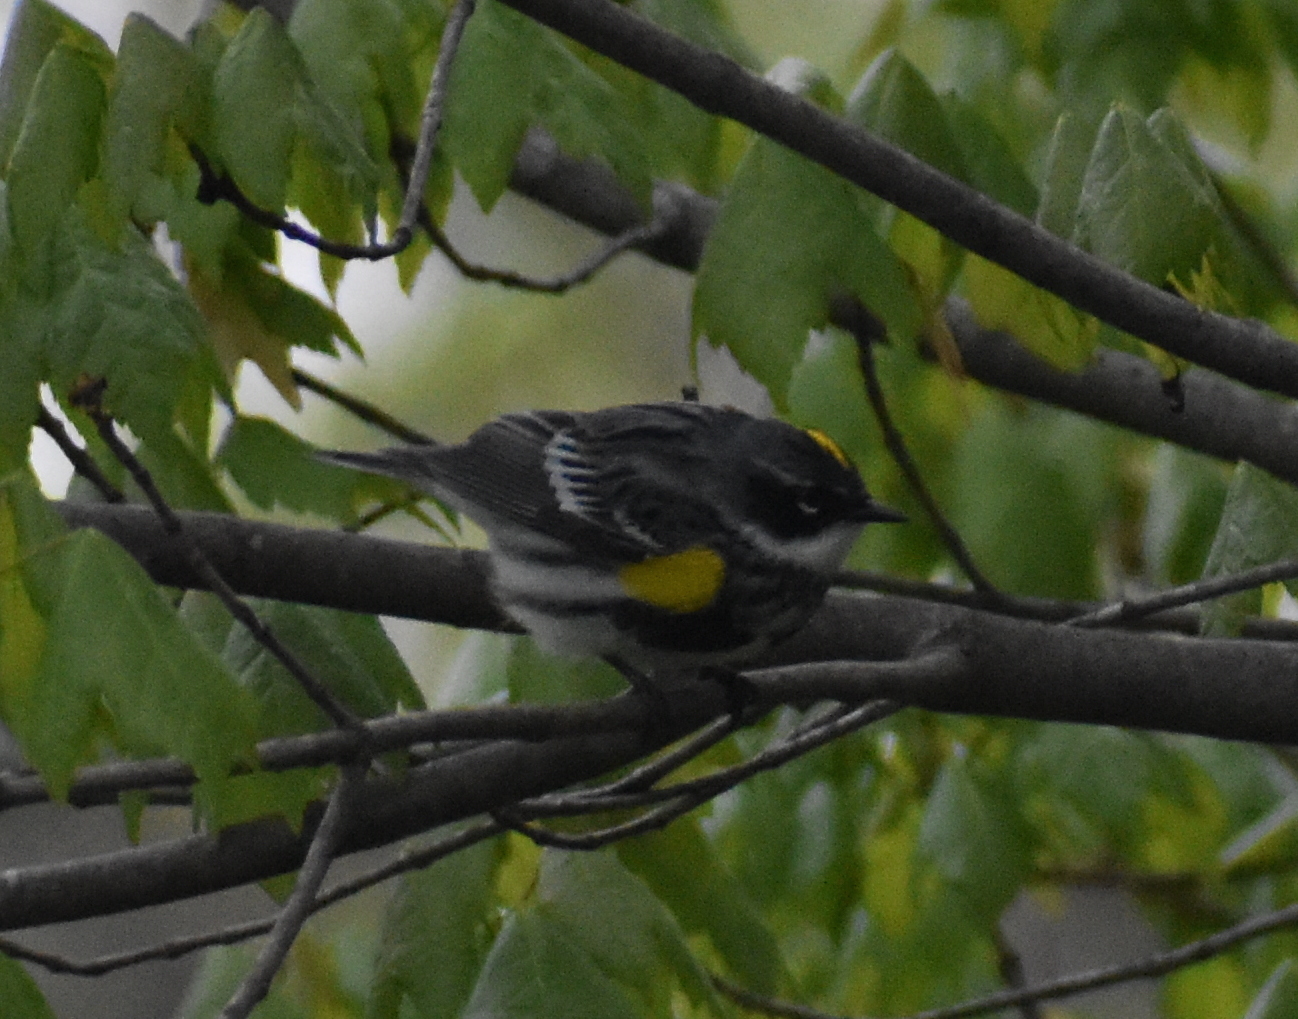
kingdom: Animalia
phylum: Chordata
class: Aves
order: Passeriformes
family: Parulidae
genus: Setophaga
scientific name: Setophaga coronata
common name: Myrtle warbler
